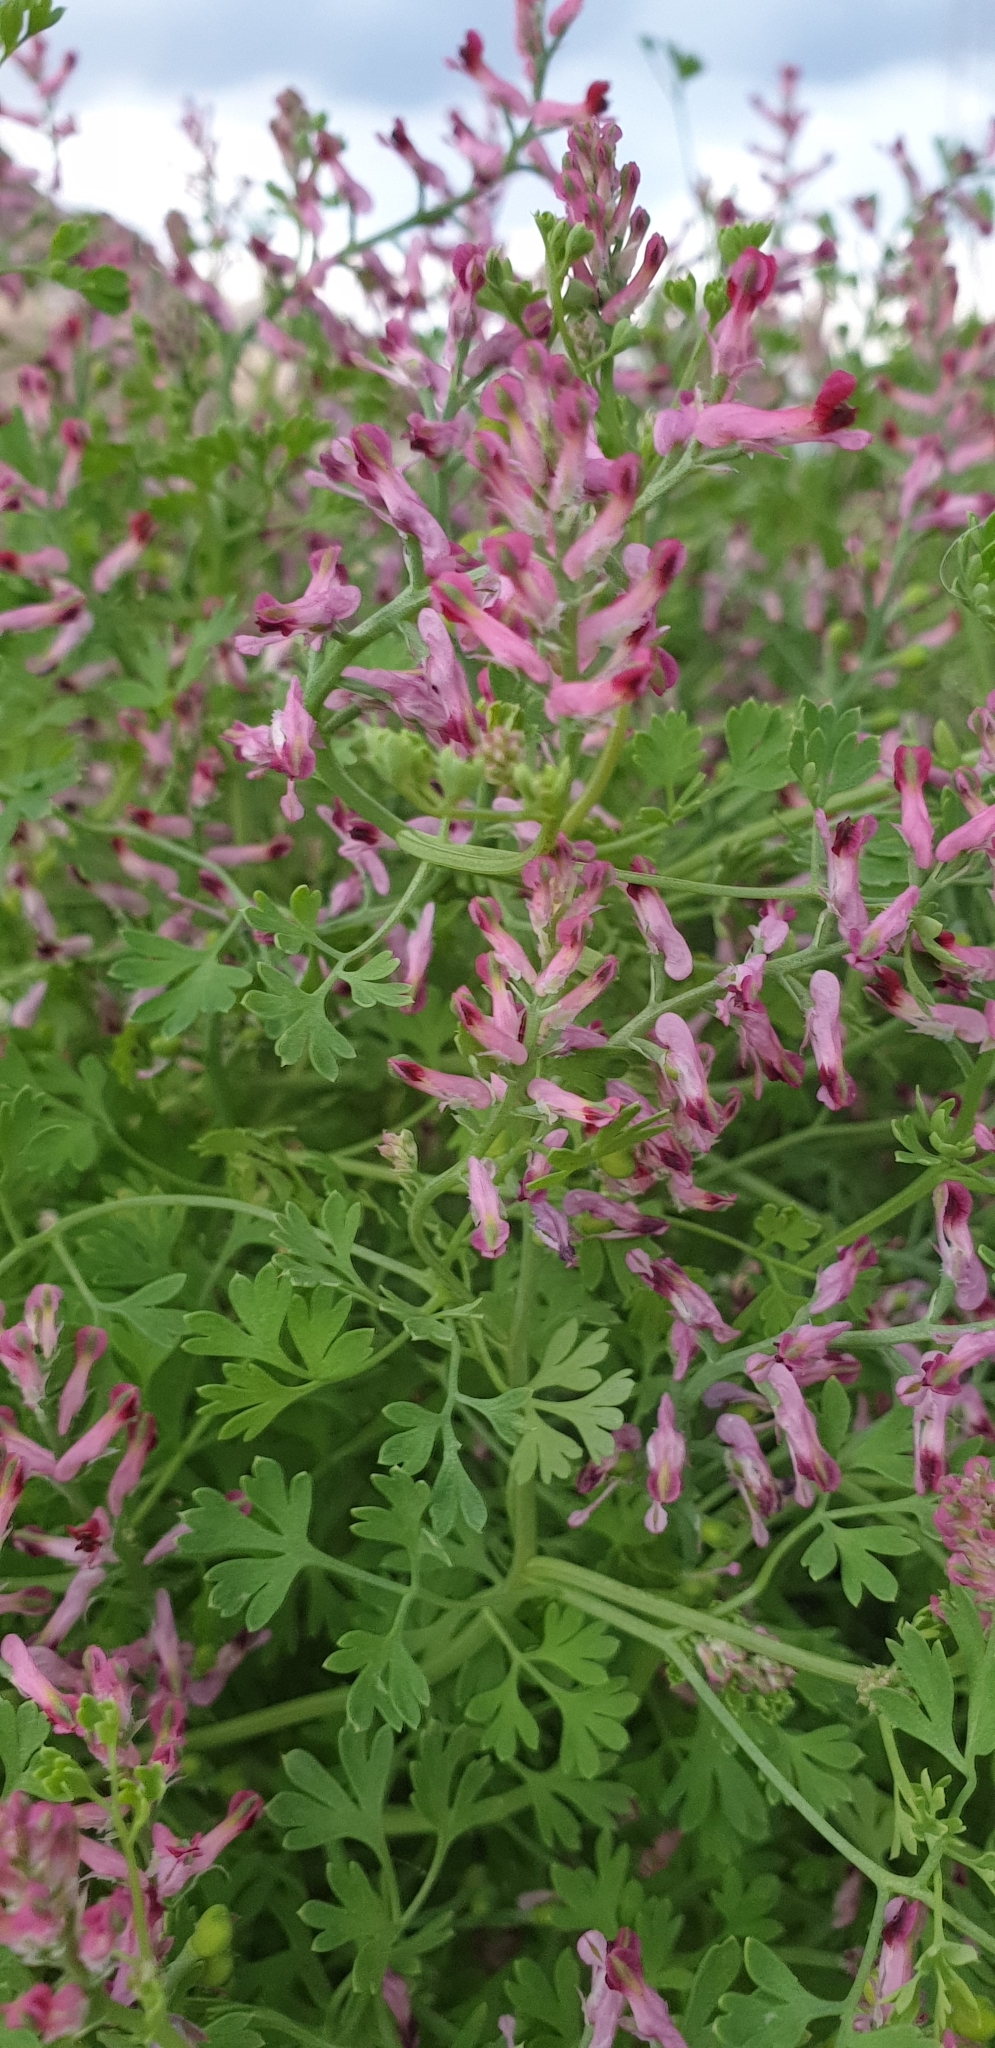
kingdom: Plantae
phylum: Tracheophyta
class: Magnoliopsida
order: Ranunculales
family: Papaveraceae
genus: Fumaria
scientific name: Fumaria officinalis
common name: Common fumitory
